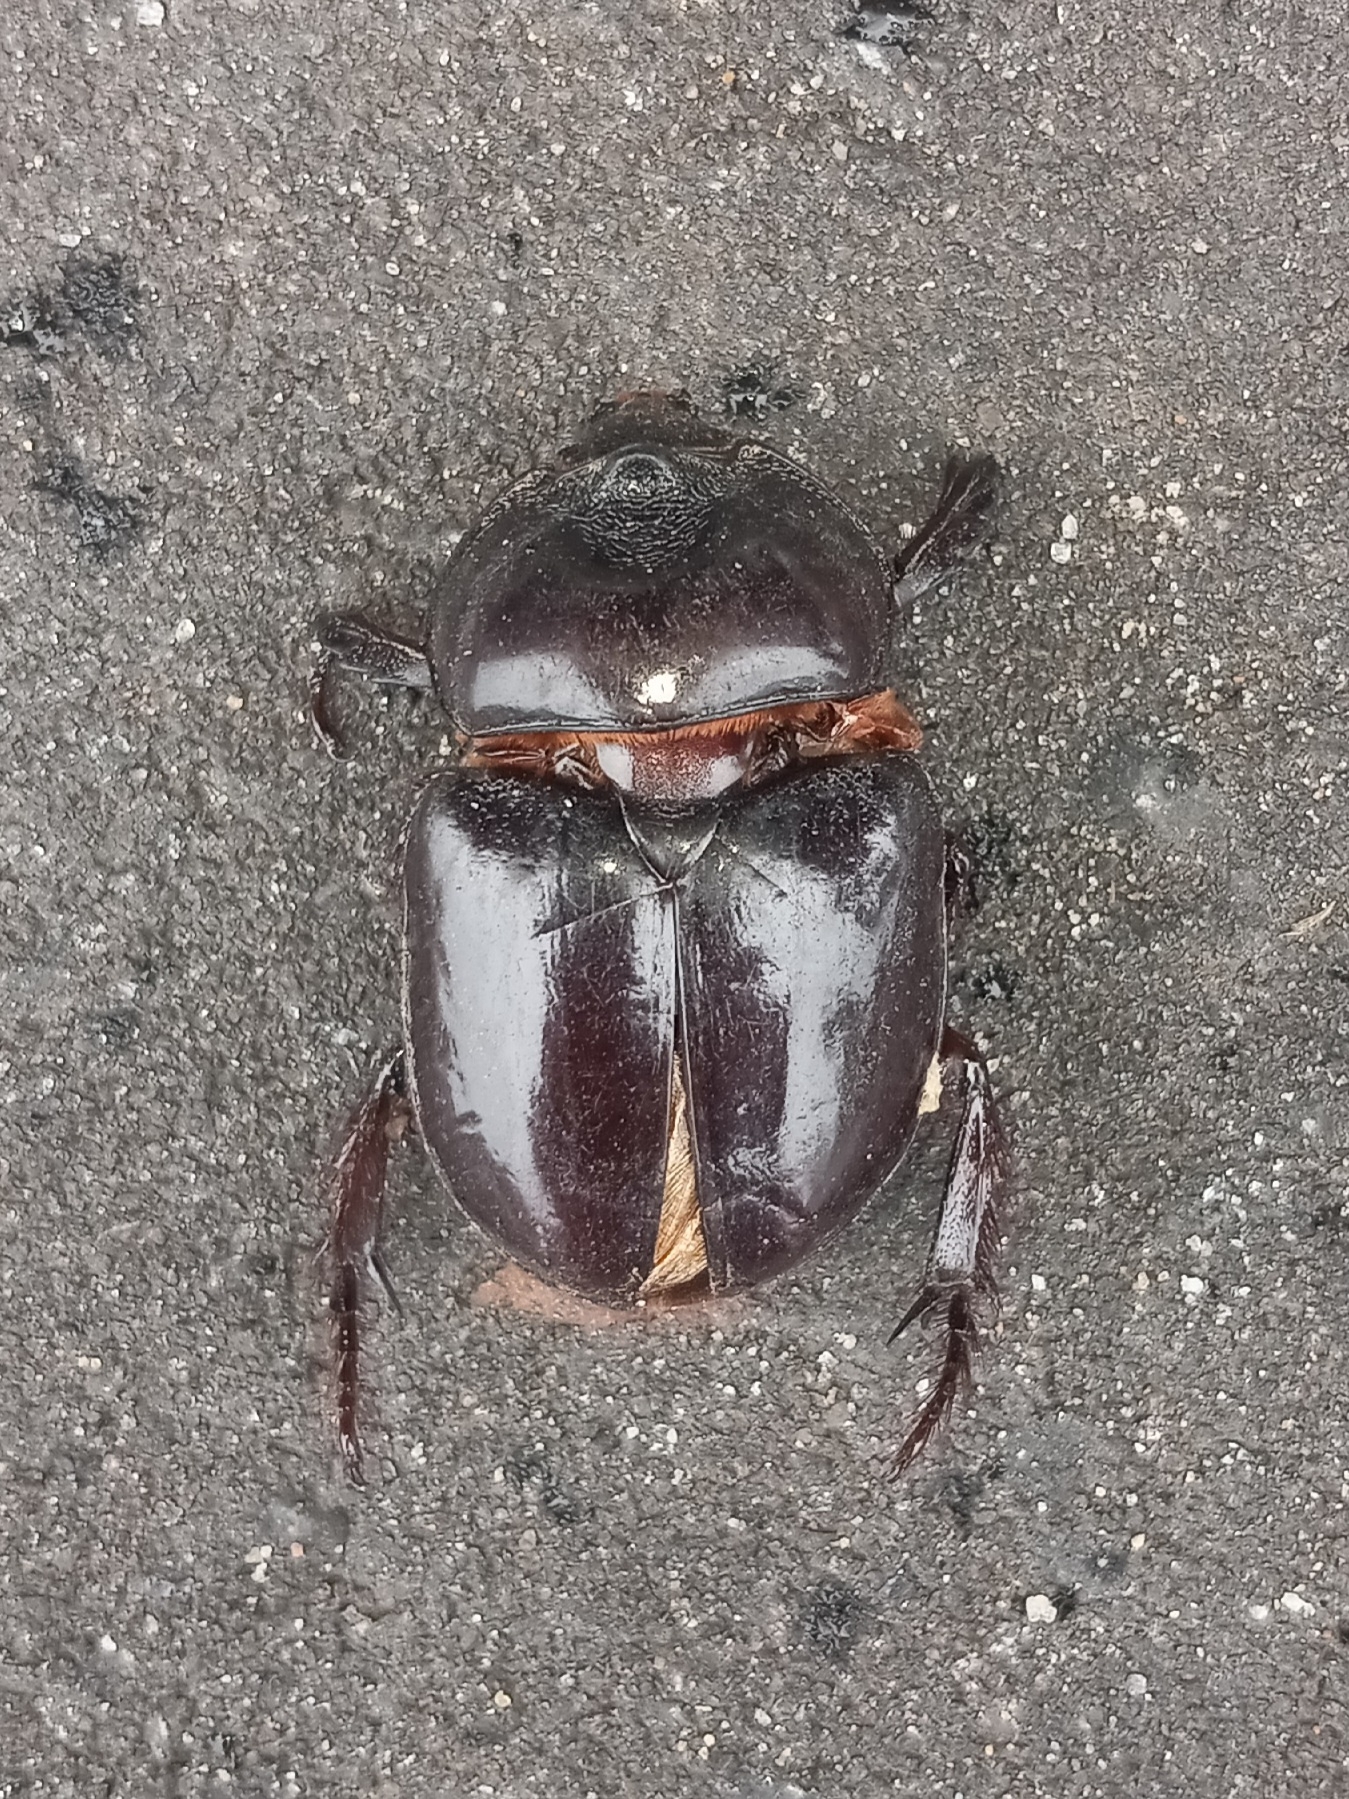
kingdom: Animalia
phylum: Arthropoda
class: Insecta
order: Coleoptera
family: Scarabaeidae
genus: Strategus
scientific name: Strategus antaeus
